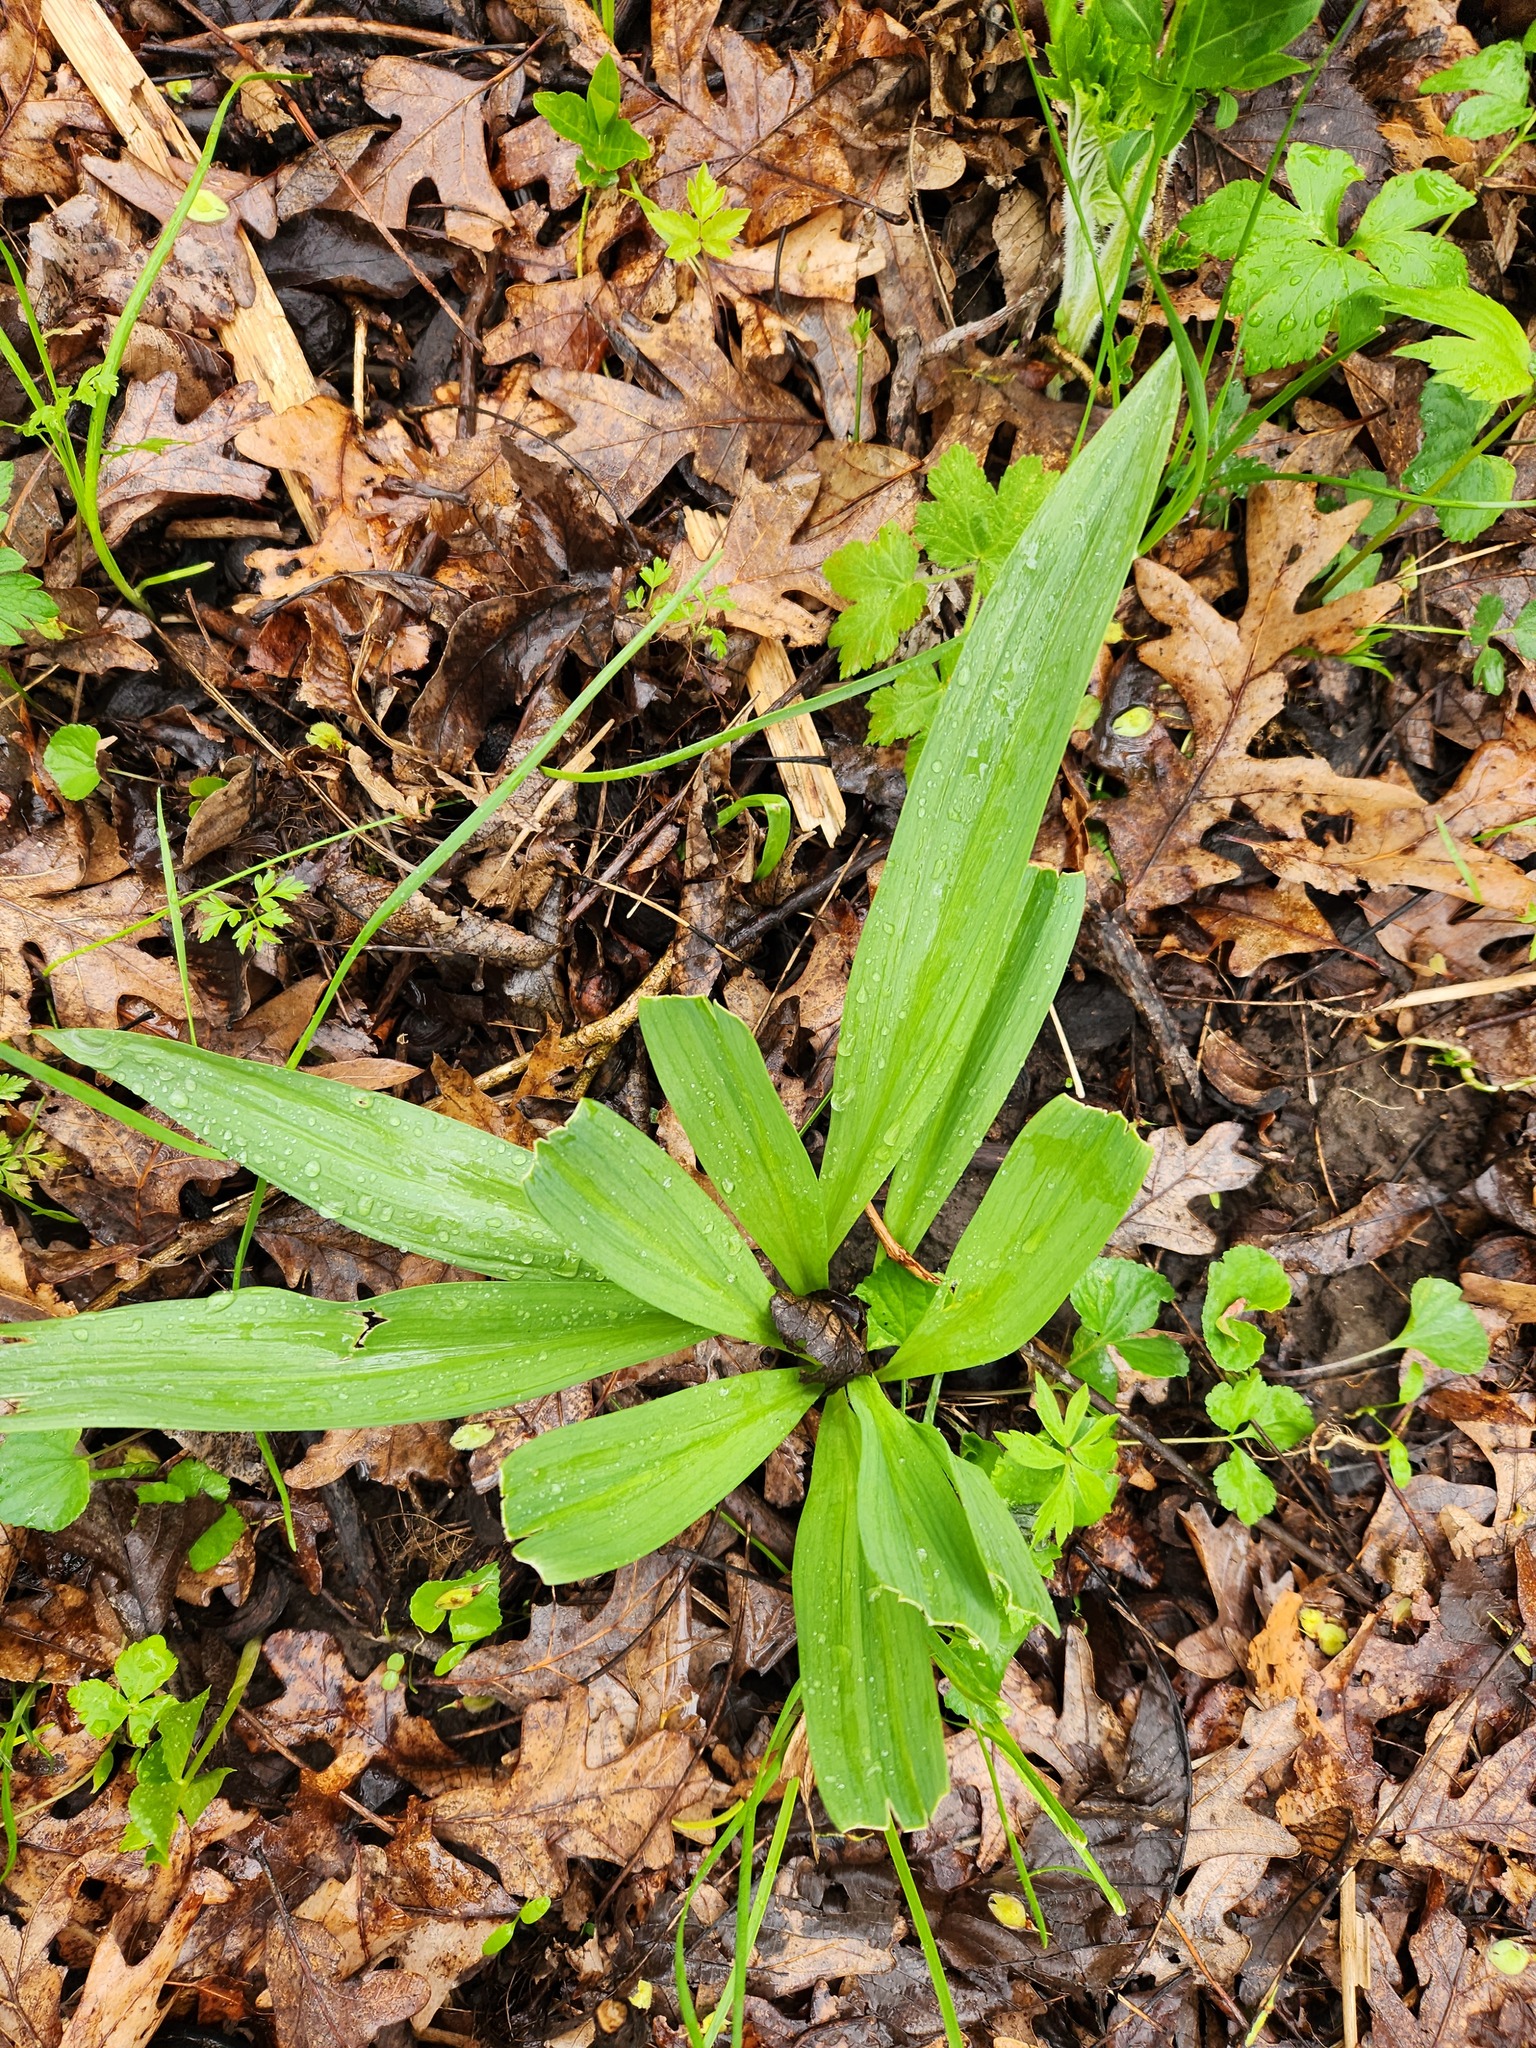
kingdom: Plantae
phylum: Tracheophyta
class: Liliopsida
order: Asparagales
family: Amaryllidaceae
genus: Allium
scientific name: Allium tricoccum
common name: Ramp
